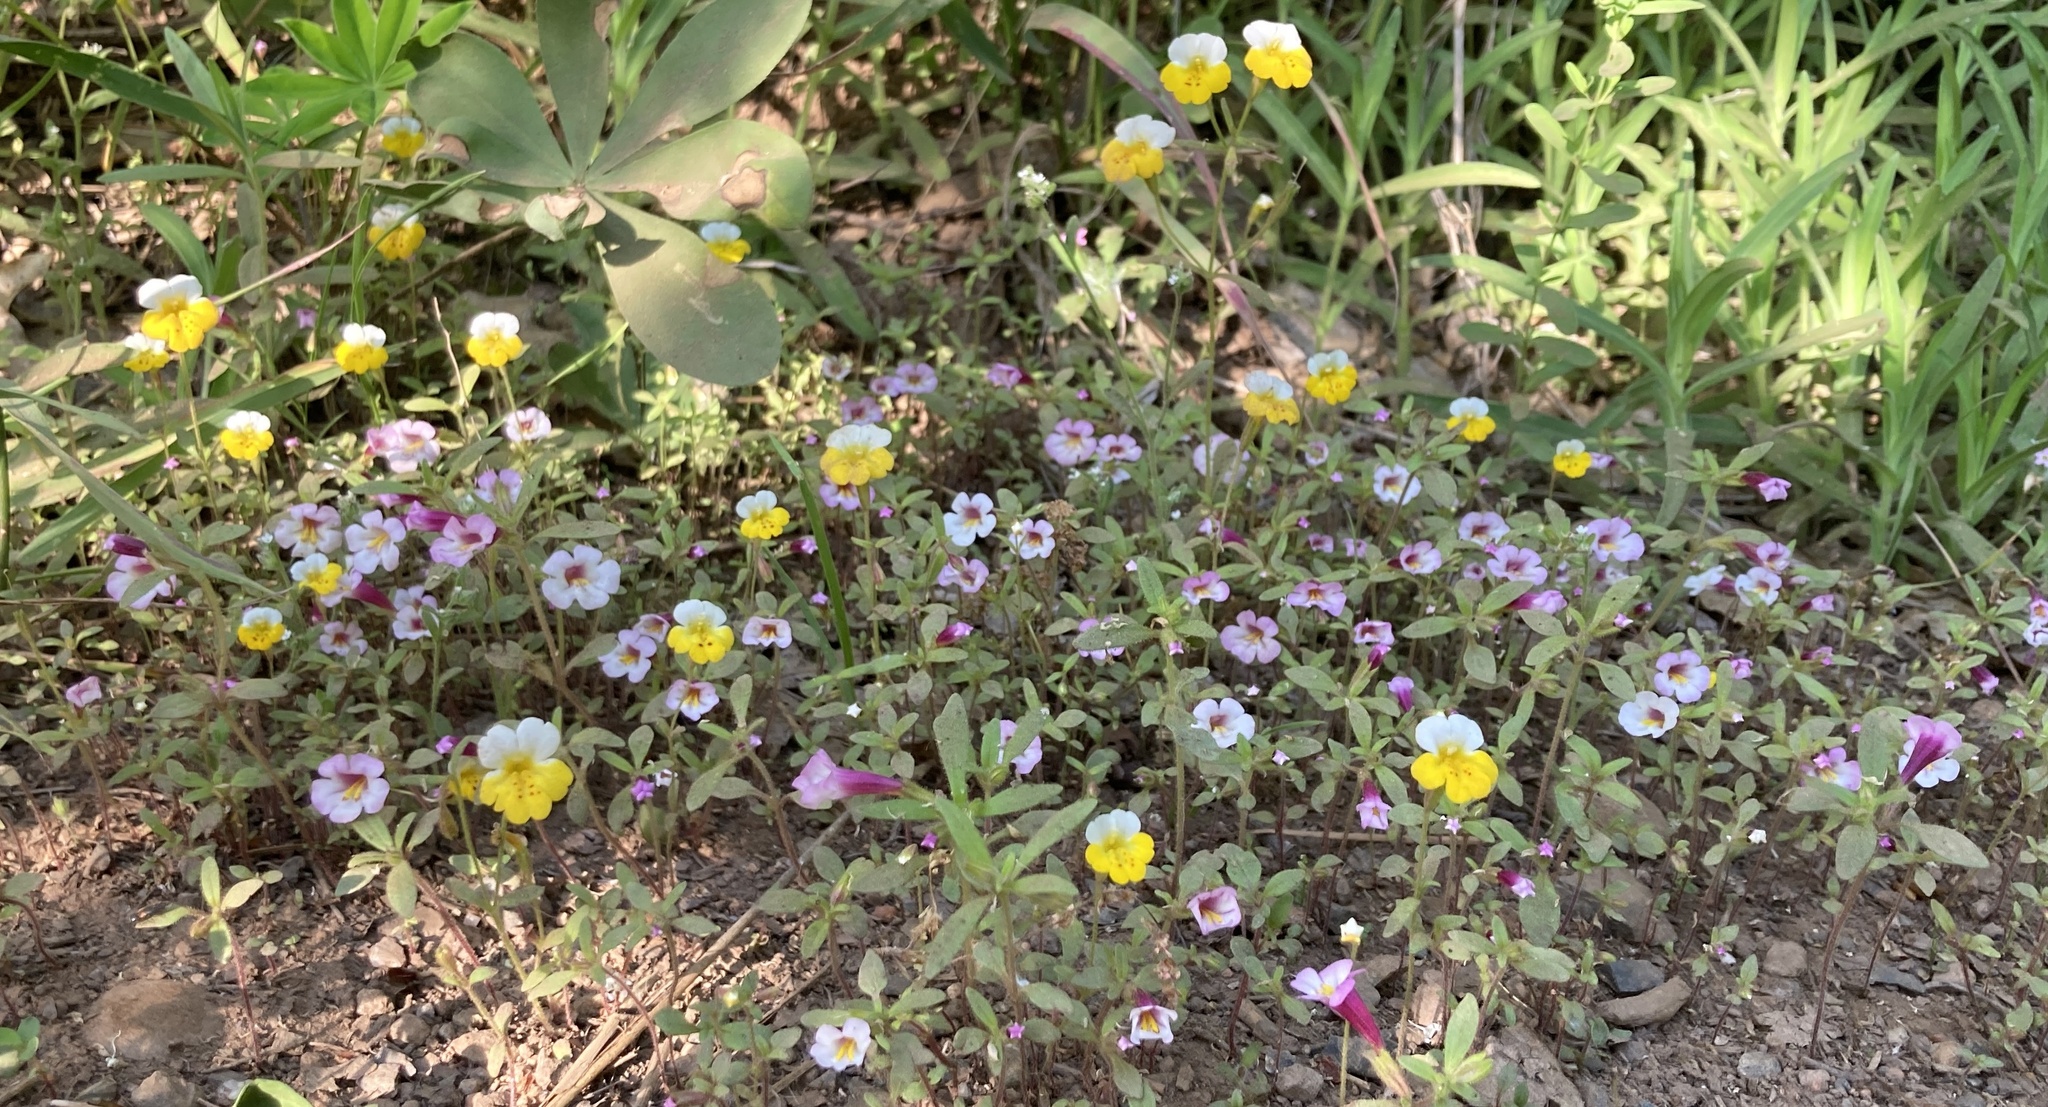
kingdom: Plantae
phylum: Tracheophyta
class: Magnoliopsida
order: Lamiales
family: Phrymaceae
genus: Erythranthe
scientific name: Erythranthe bicolor
